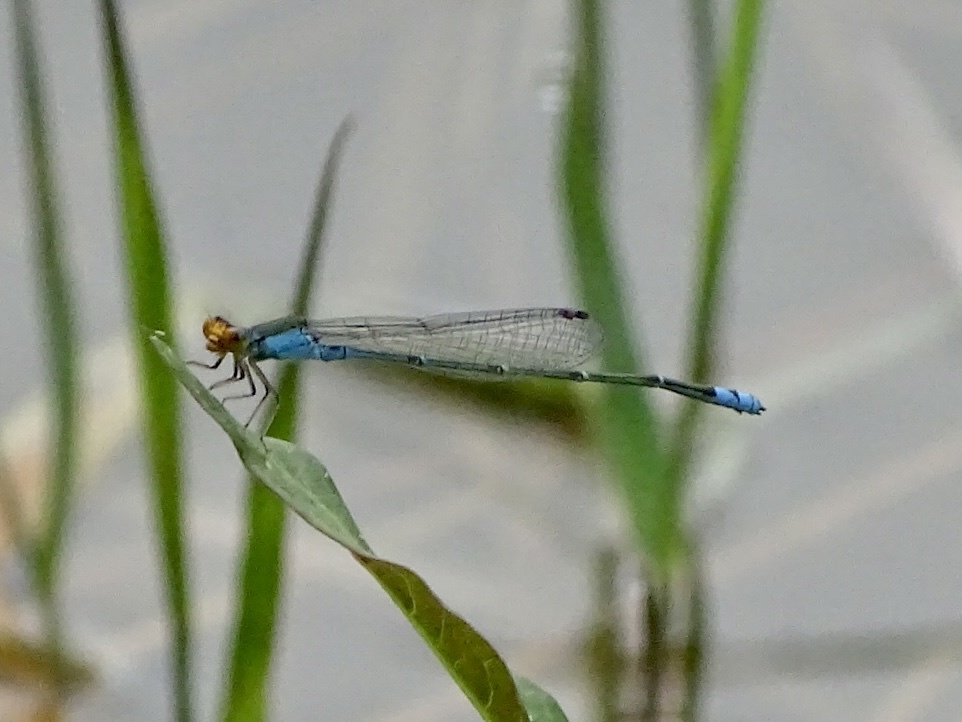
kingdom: Animalia
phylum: Arthropoda
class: Insecta
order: Odonata
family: Coenagrionidae
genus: Pseudagrion
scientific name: Pseudagrion rubriceps
